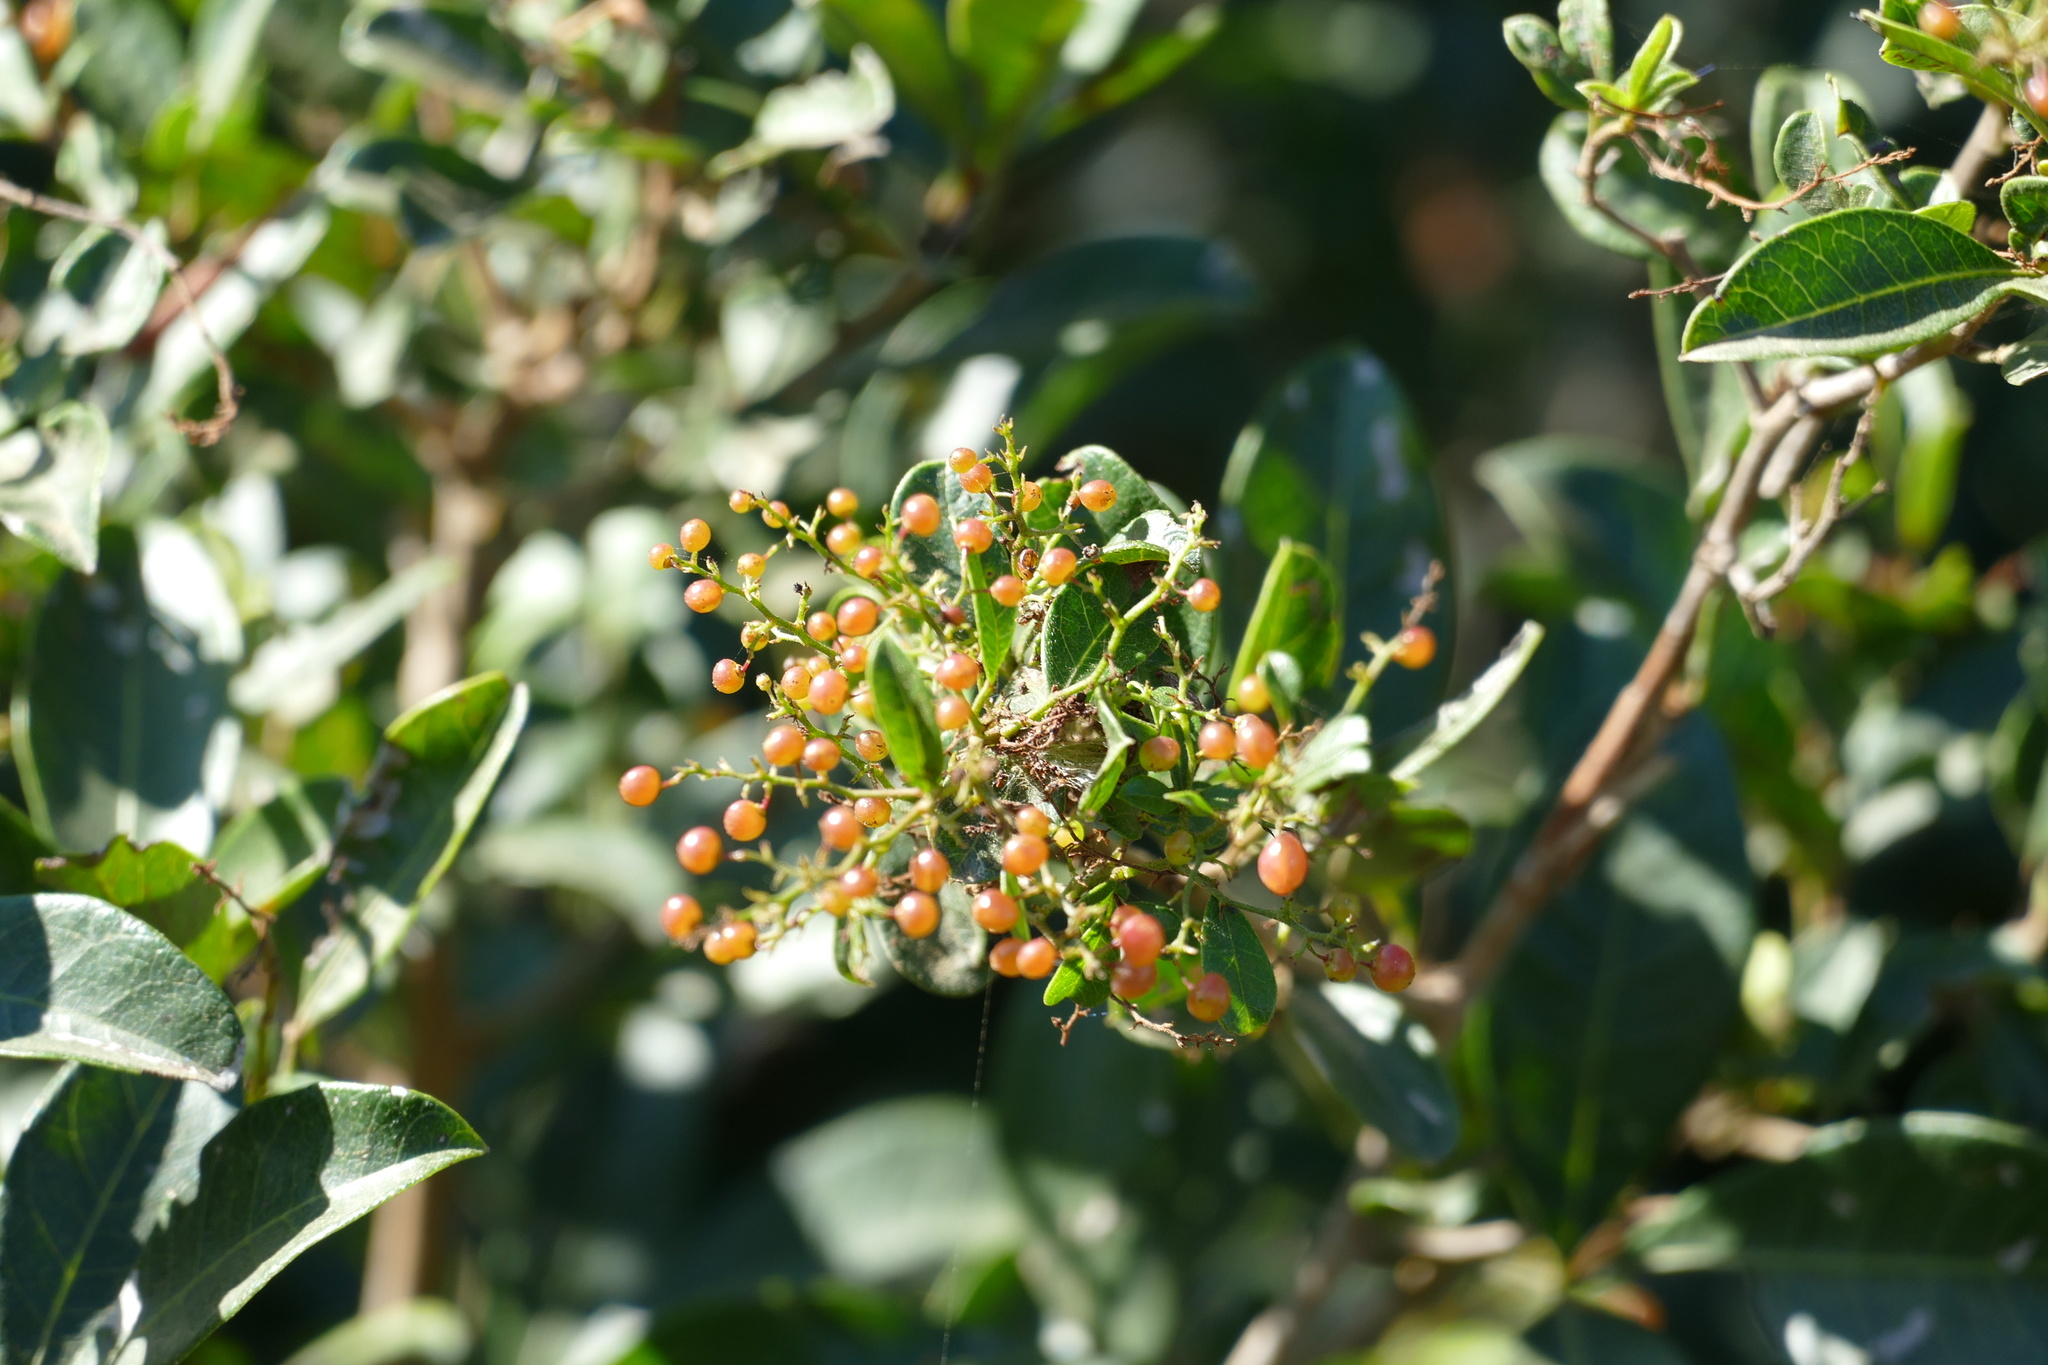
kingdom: Plantae
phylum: Tracheophyta
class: Magnoliopsida
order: Sapindales
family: Anacardiaceae
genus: Searsia
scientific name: Searsia nebulosa
